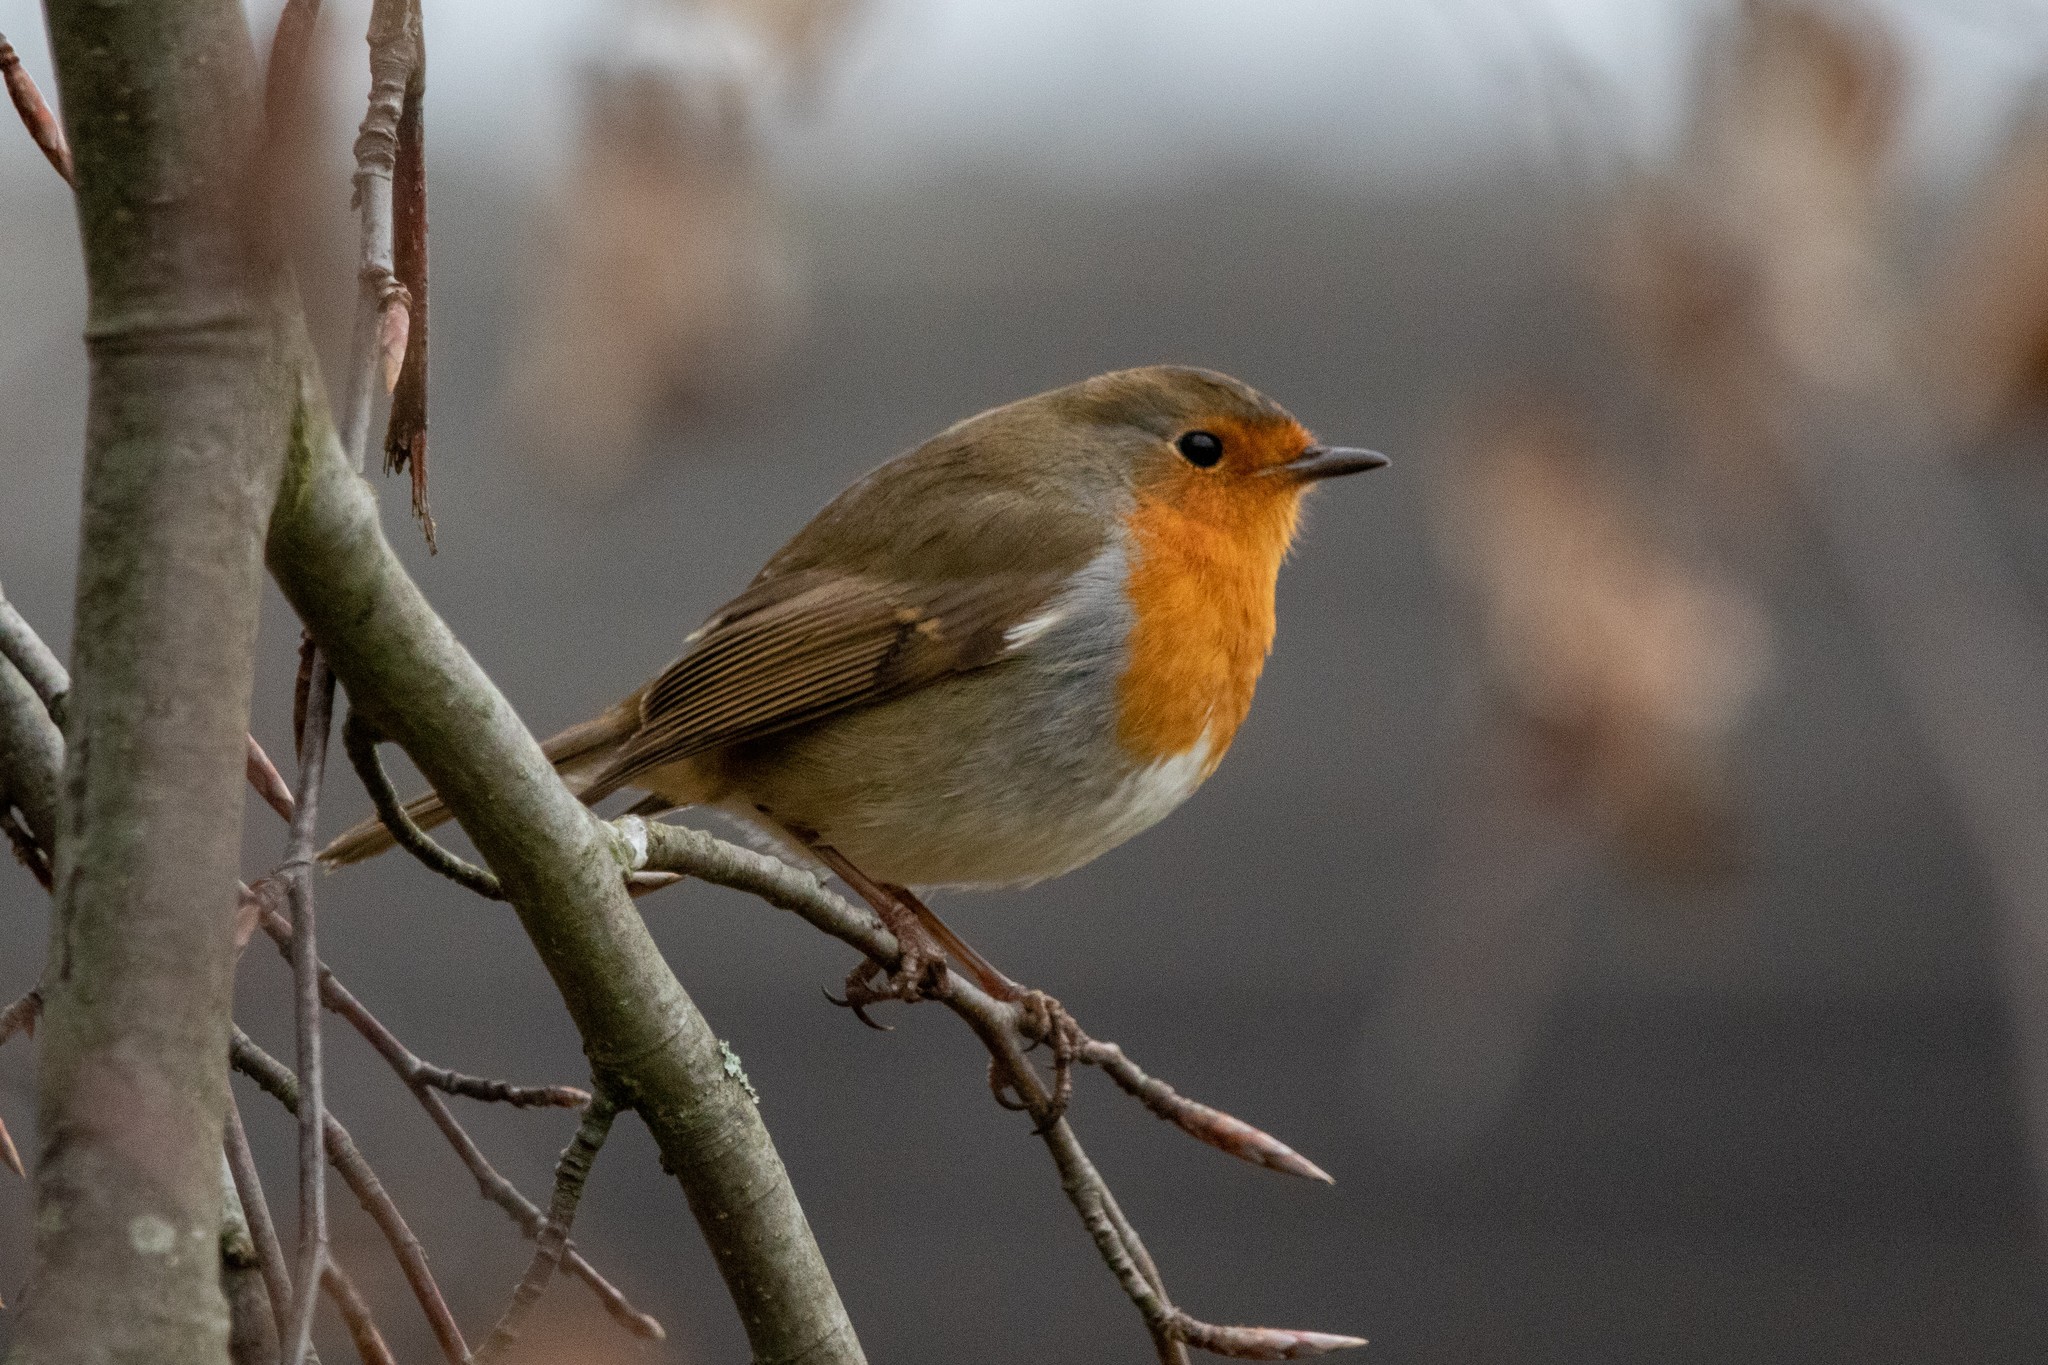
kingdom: Animalia
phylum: Chordata
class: Aves
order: Passeriformes
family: Muscicapidae
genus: Erithacus
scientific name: Erithacus rubecula
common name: European robin
